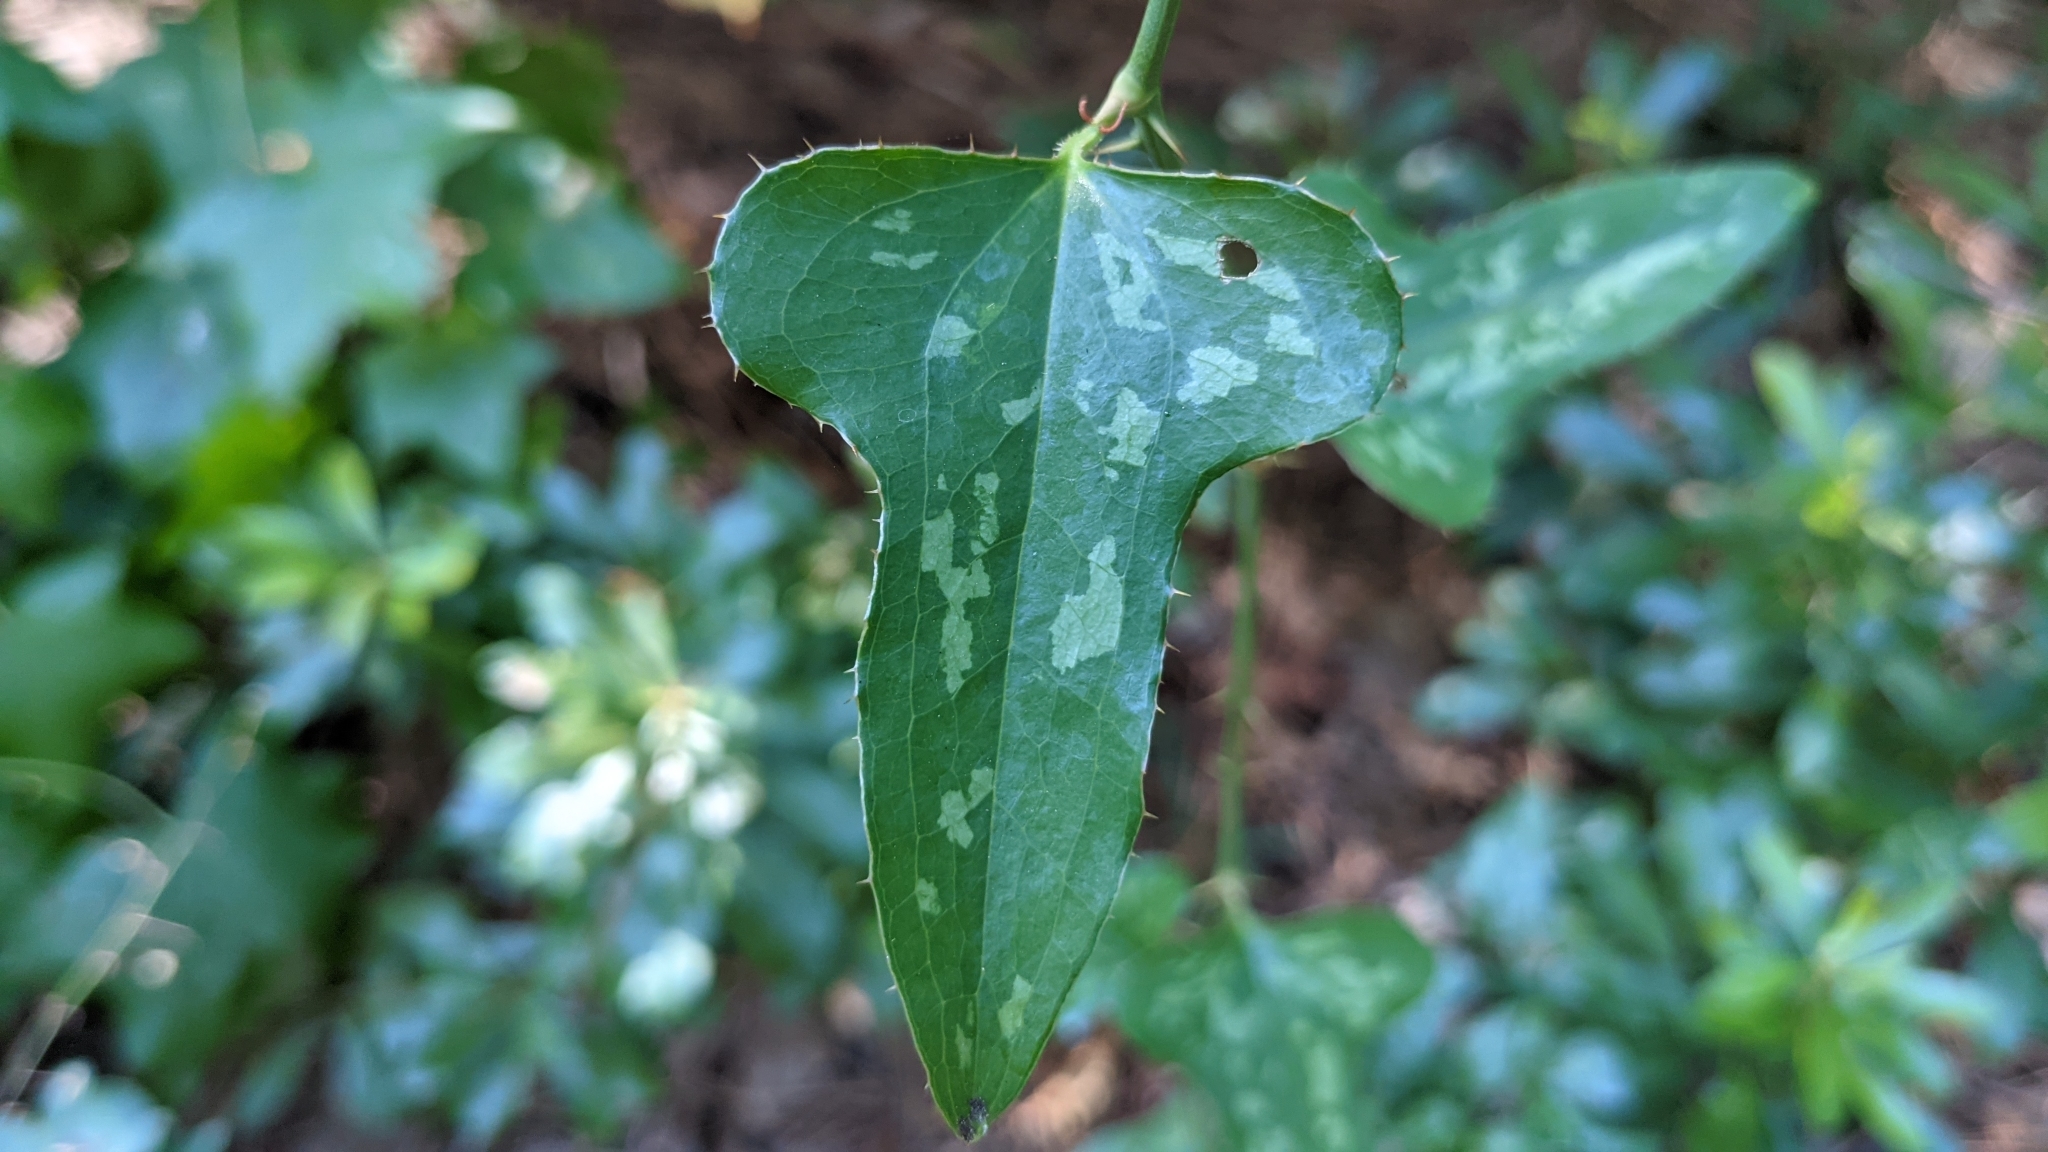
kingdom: Plantae
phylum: Tracheophyta
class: Liliopsida
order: Liliales
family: Smilacaceae
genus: Smilax
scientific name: Smilax bona-nox
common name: Catbrier
